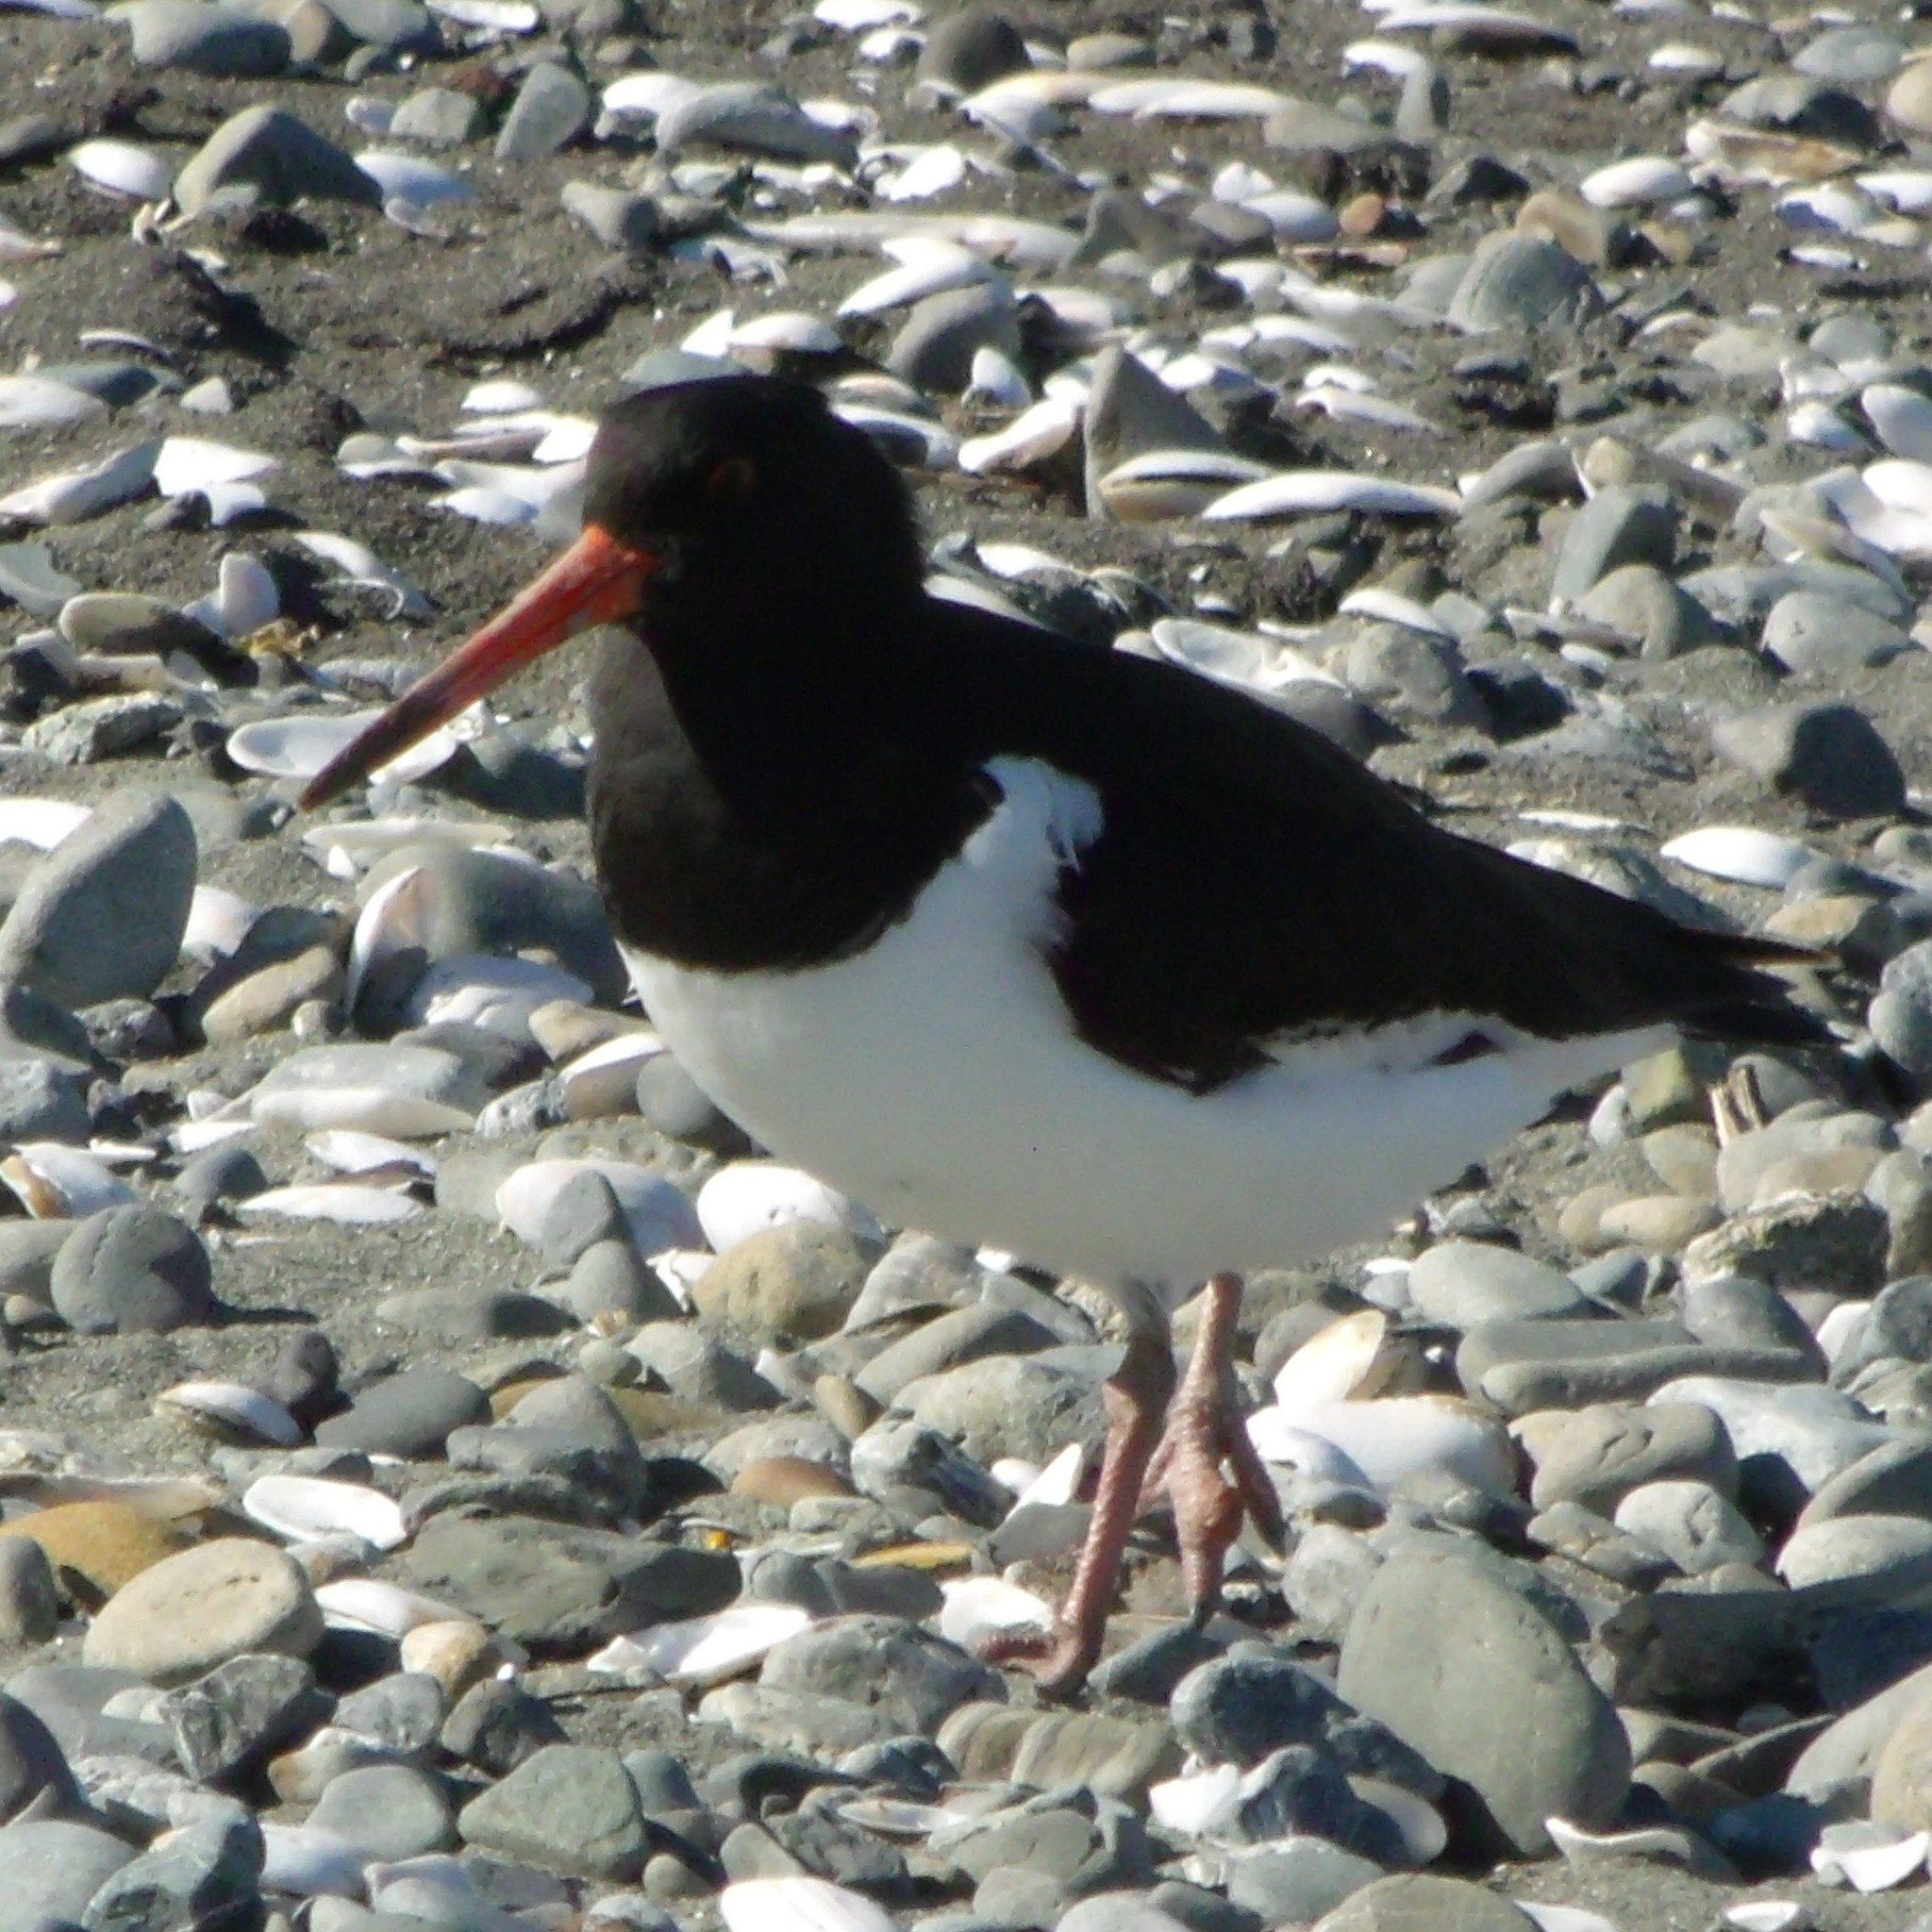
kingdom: Animalia
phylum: Chordata
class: Aves
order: Charadriiformes
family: Haematopodidae
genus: Haematopus
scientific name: Haematopus finschi
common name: South island oystercatcher
